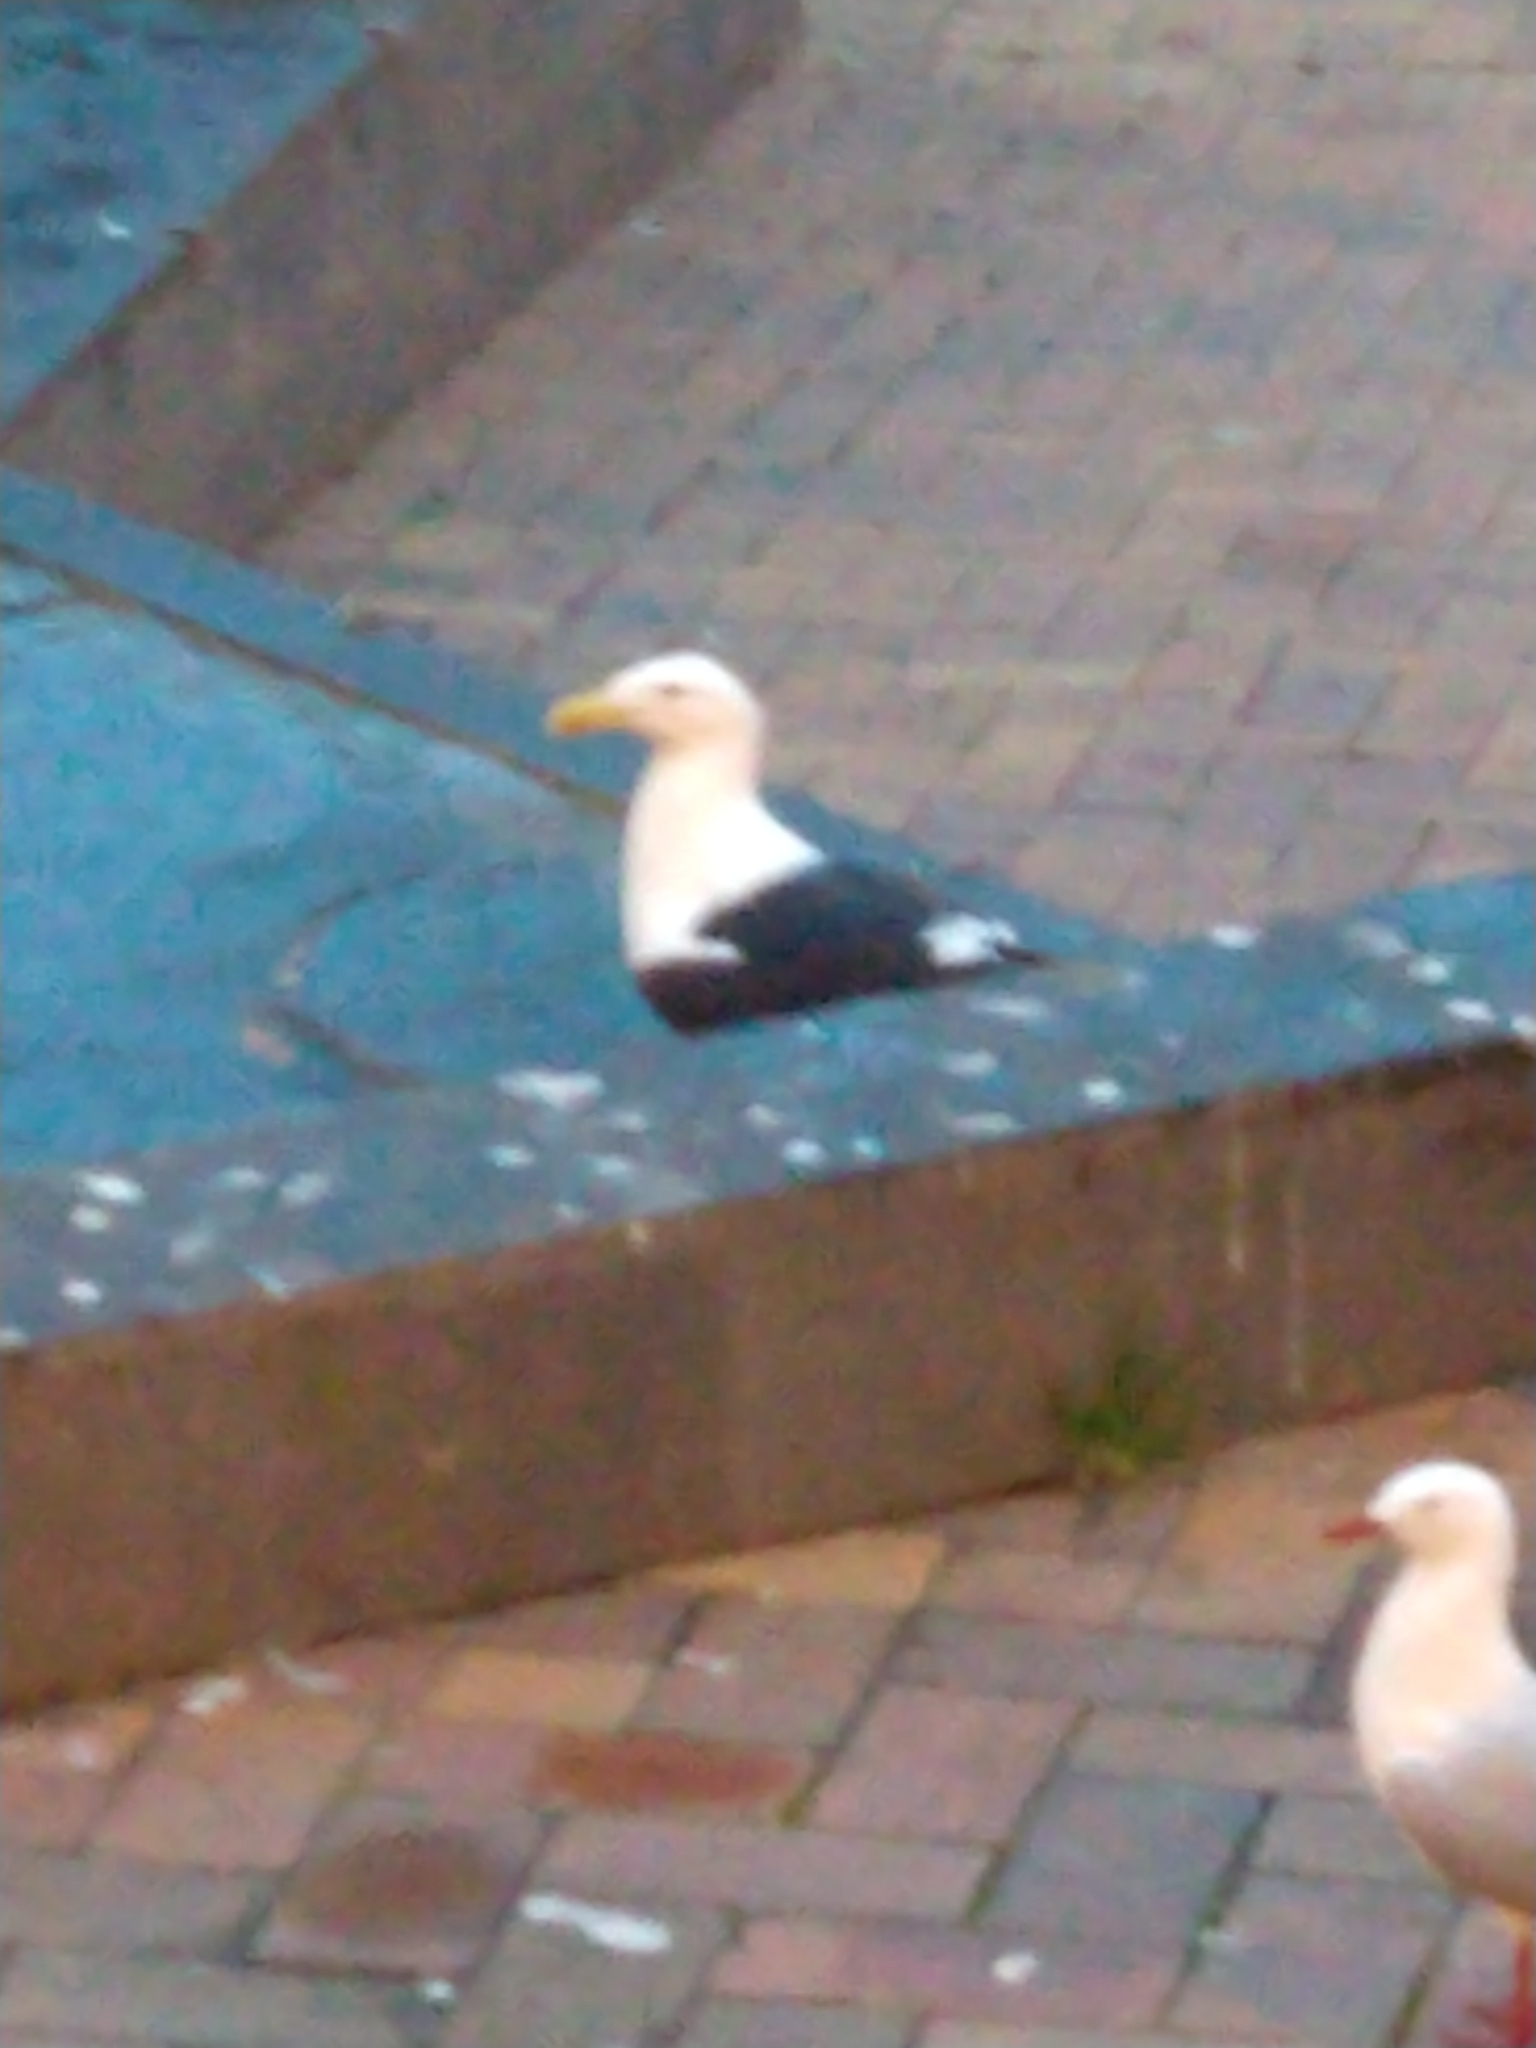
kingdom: Animalia
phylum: Chordata
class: Aves
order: Charadriiformes
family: Laridae
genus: Larus
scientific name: Larus dominicanus
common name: Kelp gull
